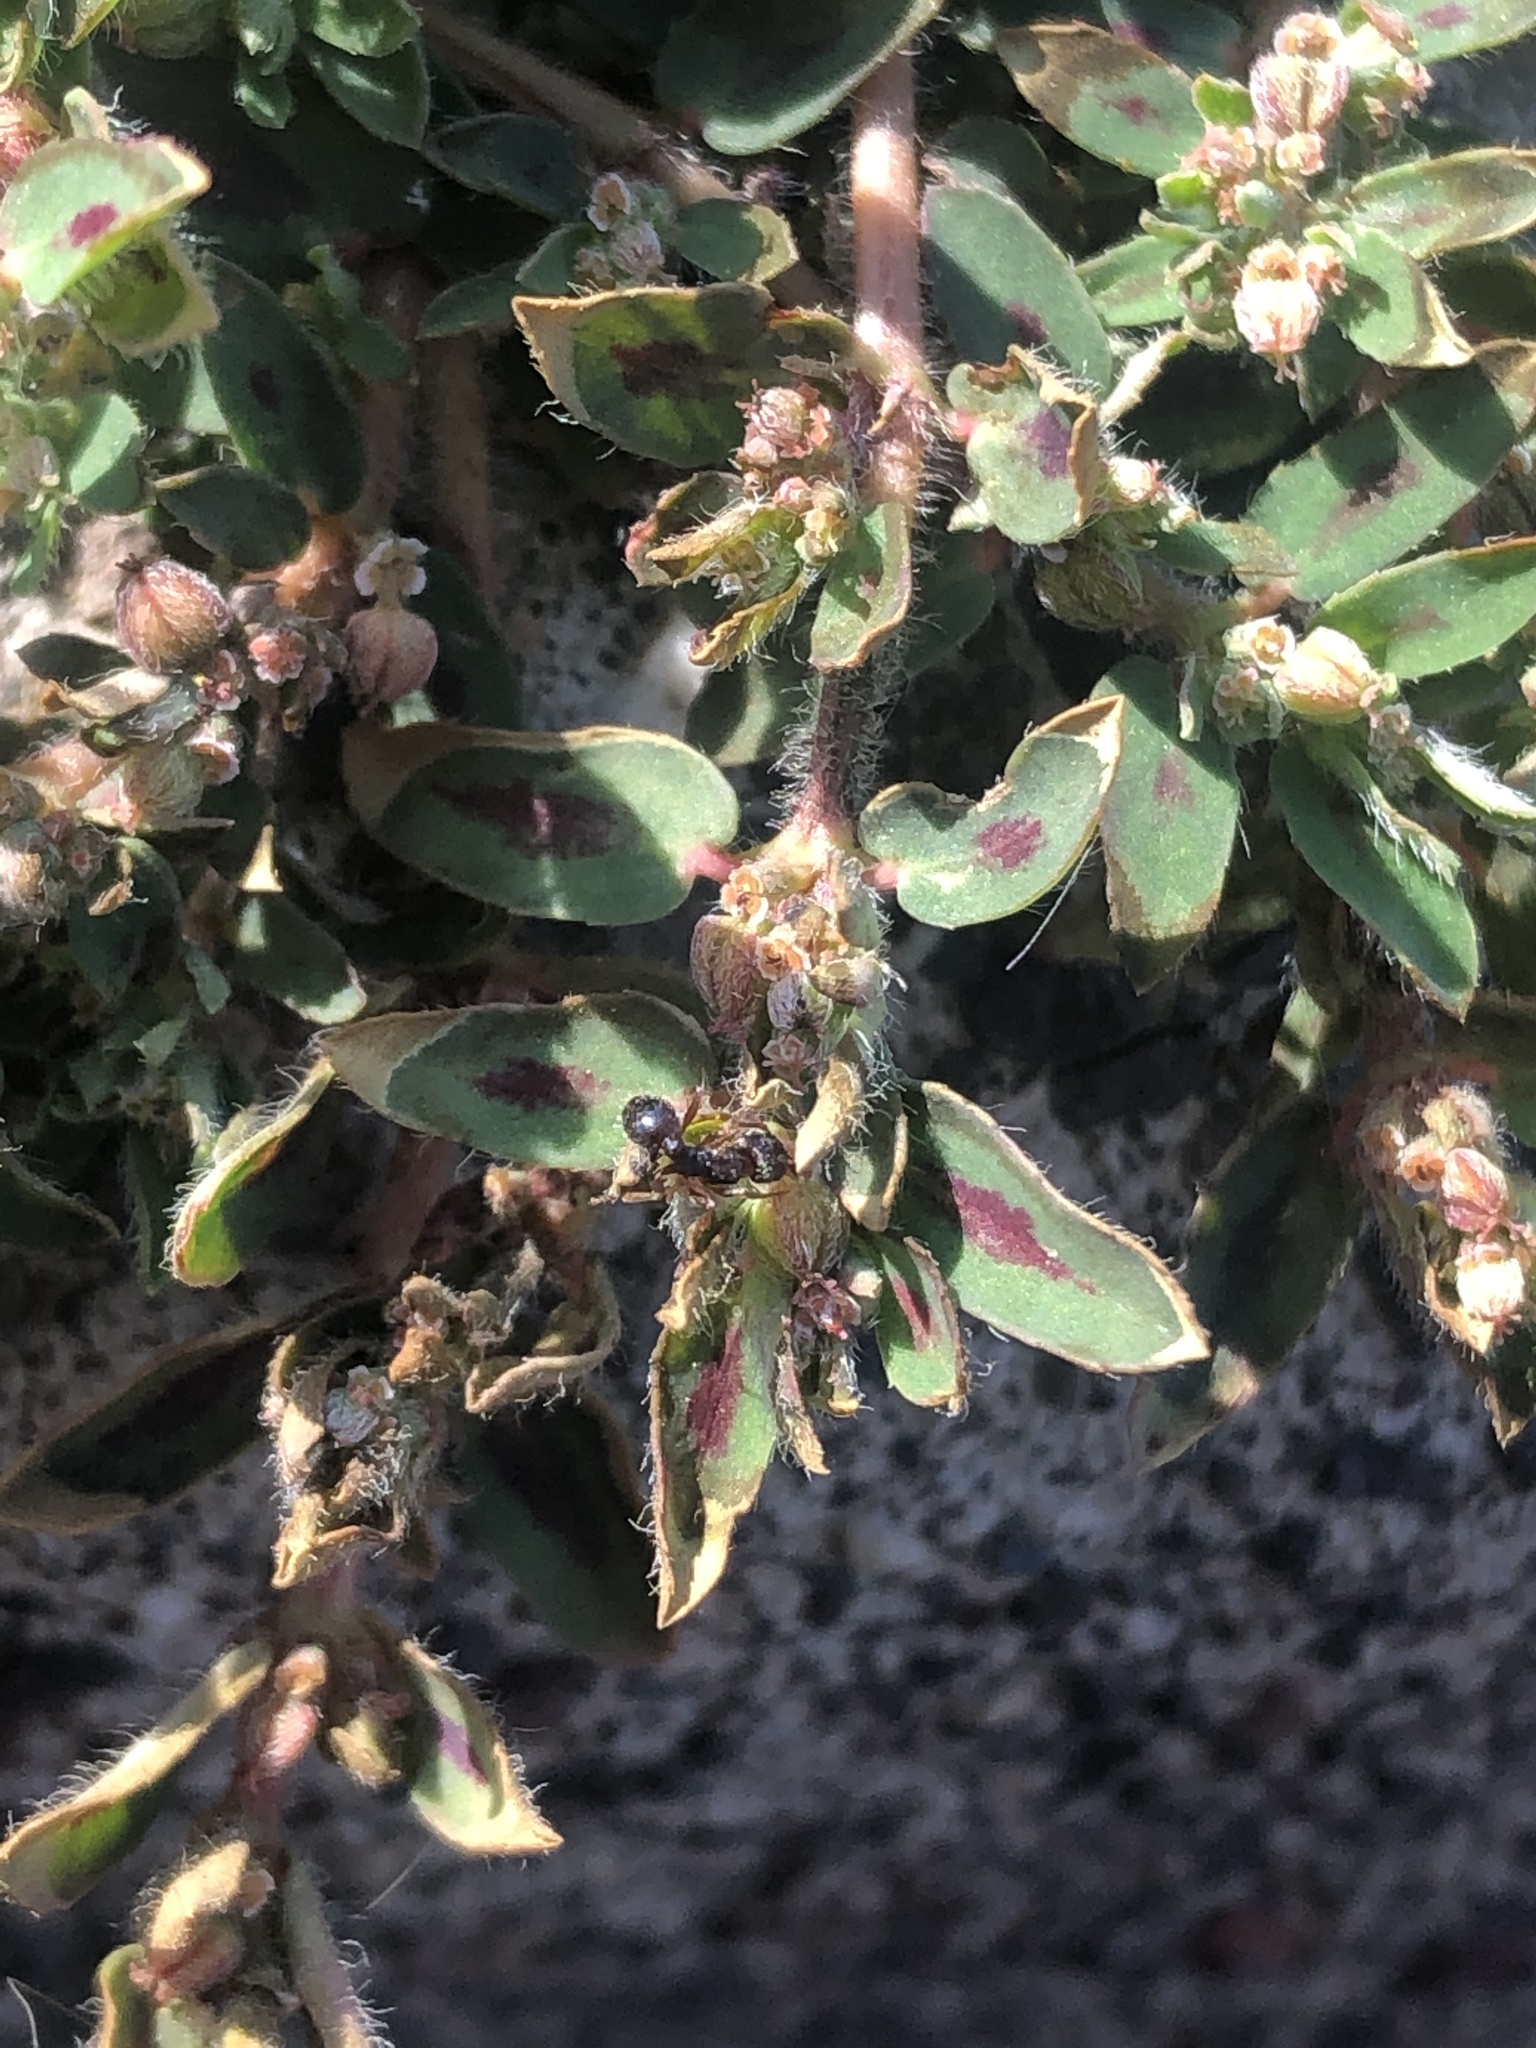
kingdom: Plantae
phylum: Tracheophyta
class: Magnoliopsida
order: Malpighiales
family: Euphorbiaceae
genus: Euphorbia
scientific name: Euphorbia maculata
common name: Spotted spurge
